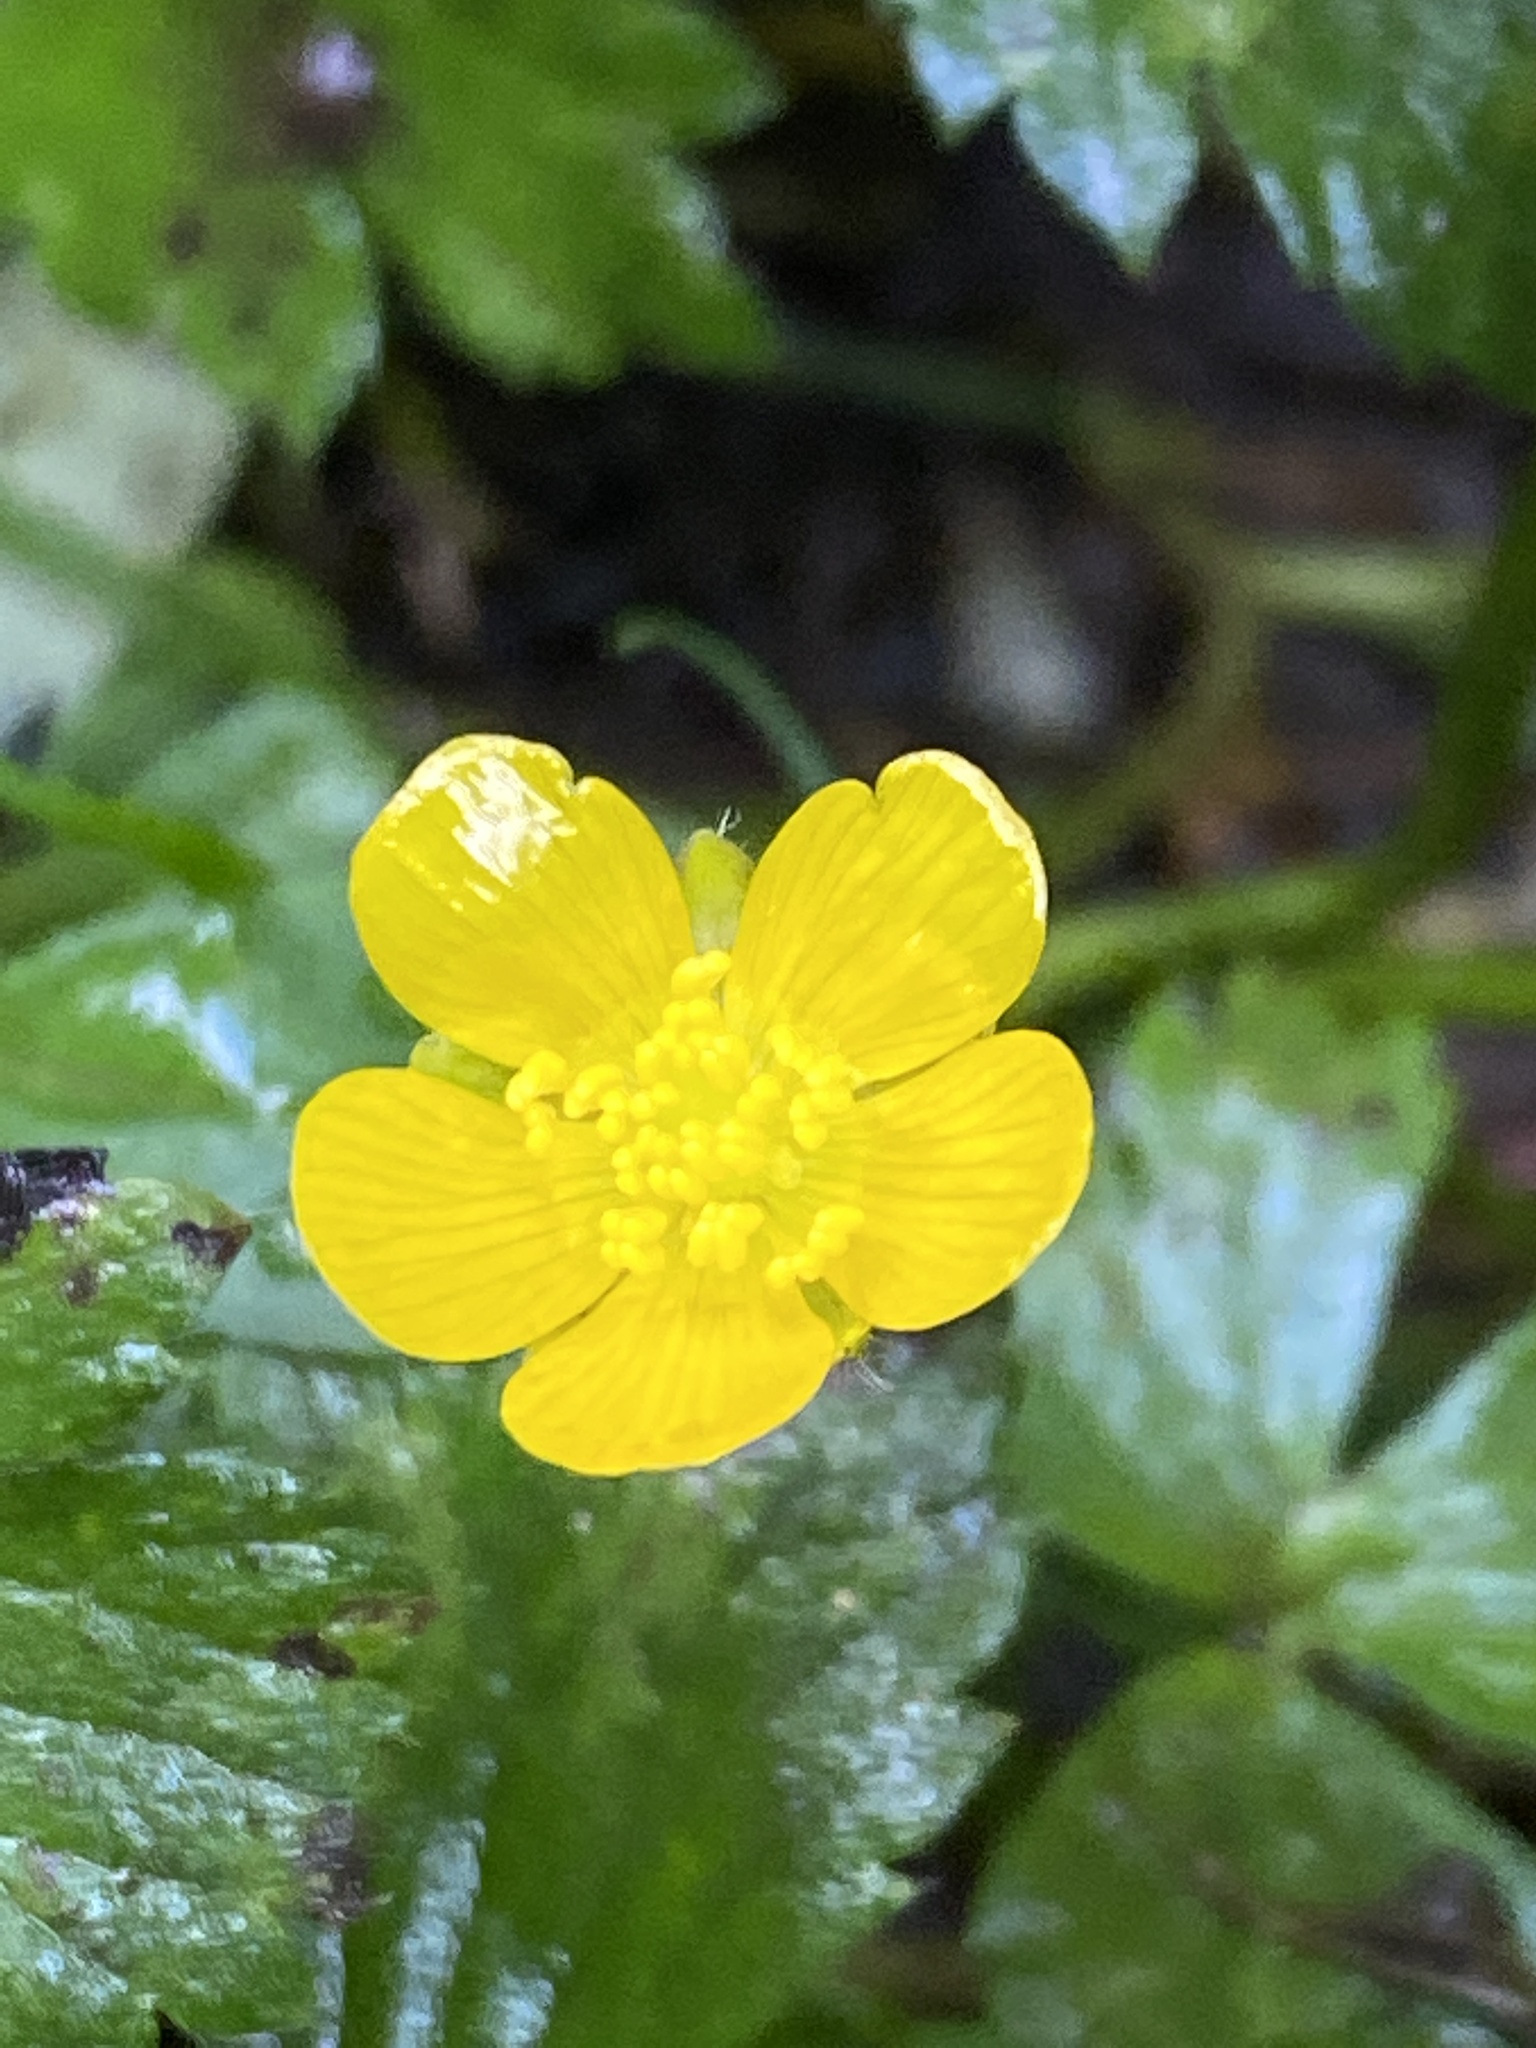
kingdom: Plantae
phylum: Tracheophyta
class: Magnoliopsida
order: Ranunculales
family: Ranunculaceae
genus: Ranunculus
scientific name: Ranunculus repens
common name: Creeping buttercup
